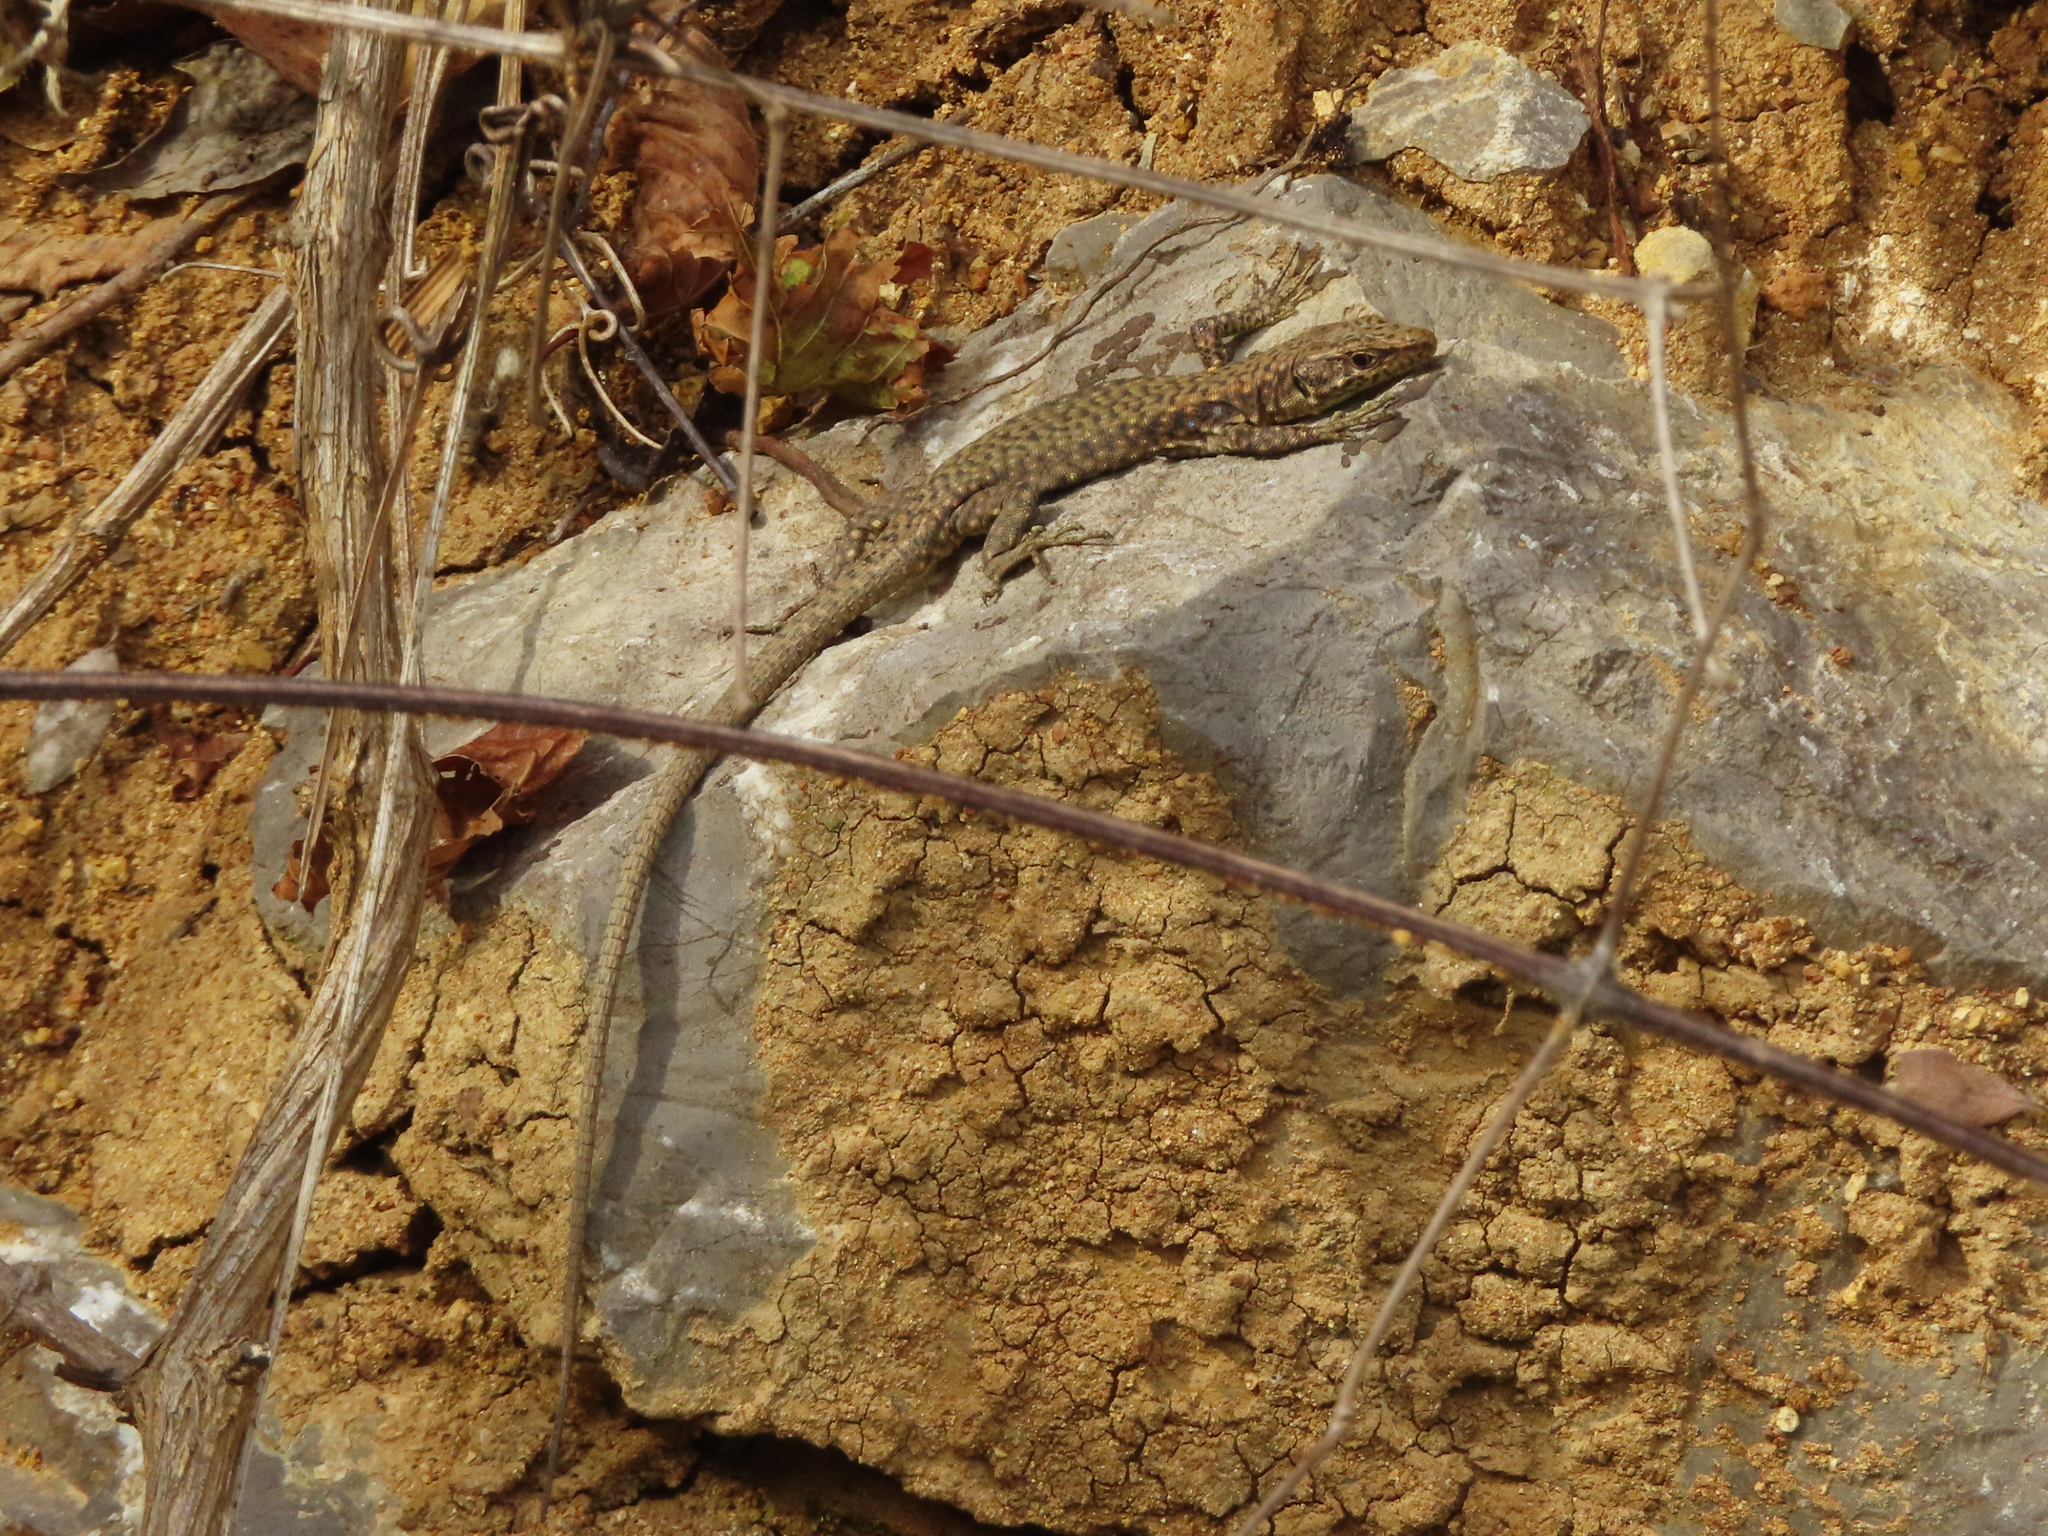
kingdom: Animalia
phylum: Chordata
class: Squamata
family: Lacertidae
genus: Darevskia
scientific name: Darevskia bithynica
